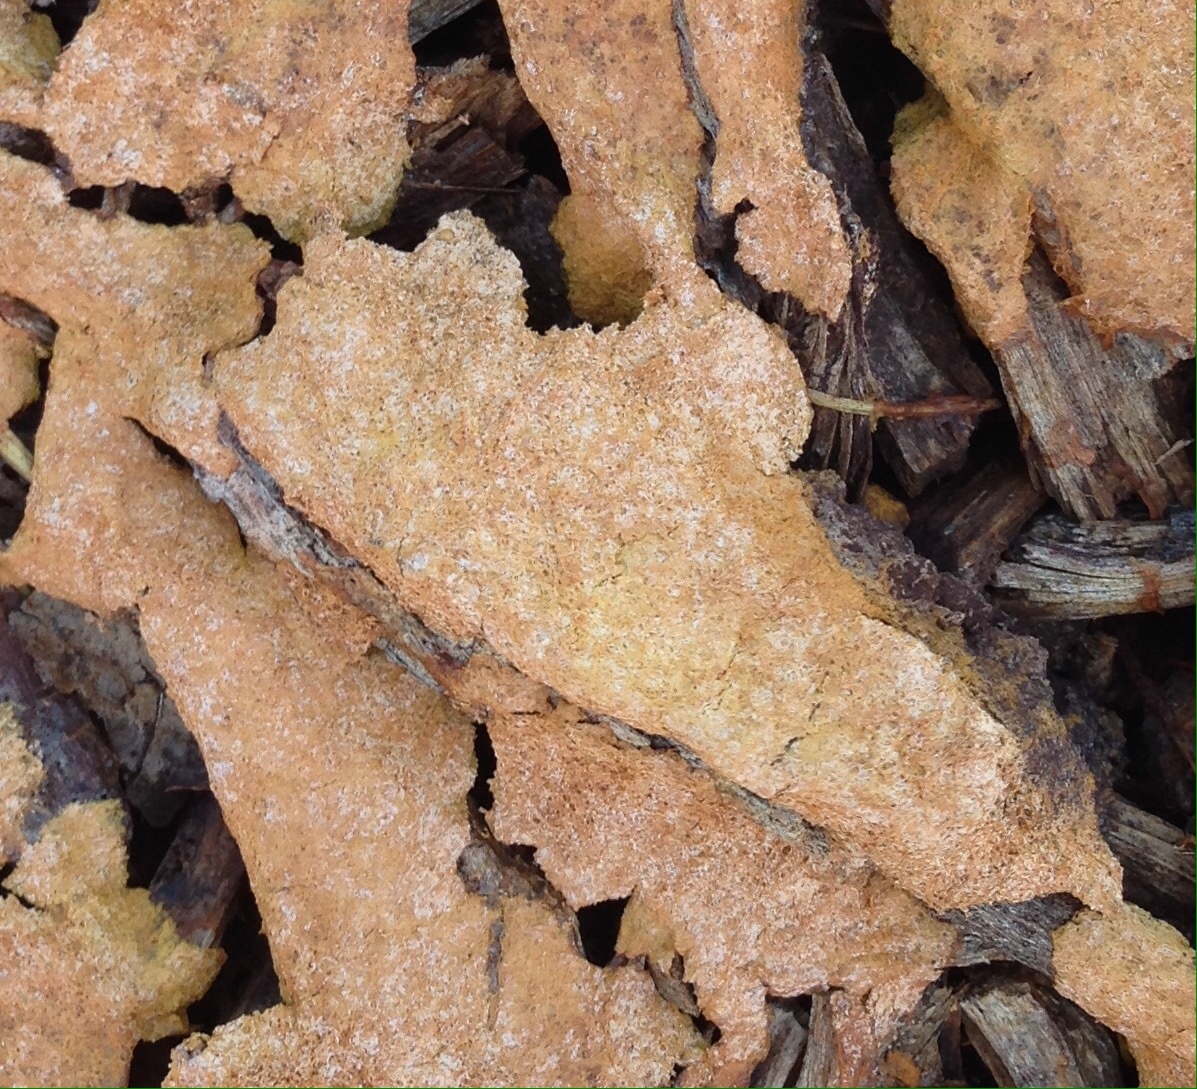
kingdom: Protozoa
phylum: Mycetozoa
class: Myxomycetes
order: Physarales
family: Physaraceae
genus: Fuligo
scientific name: Fuligo septica
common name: Dog vomit slime mold
